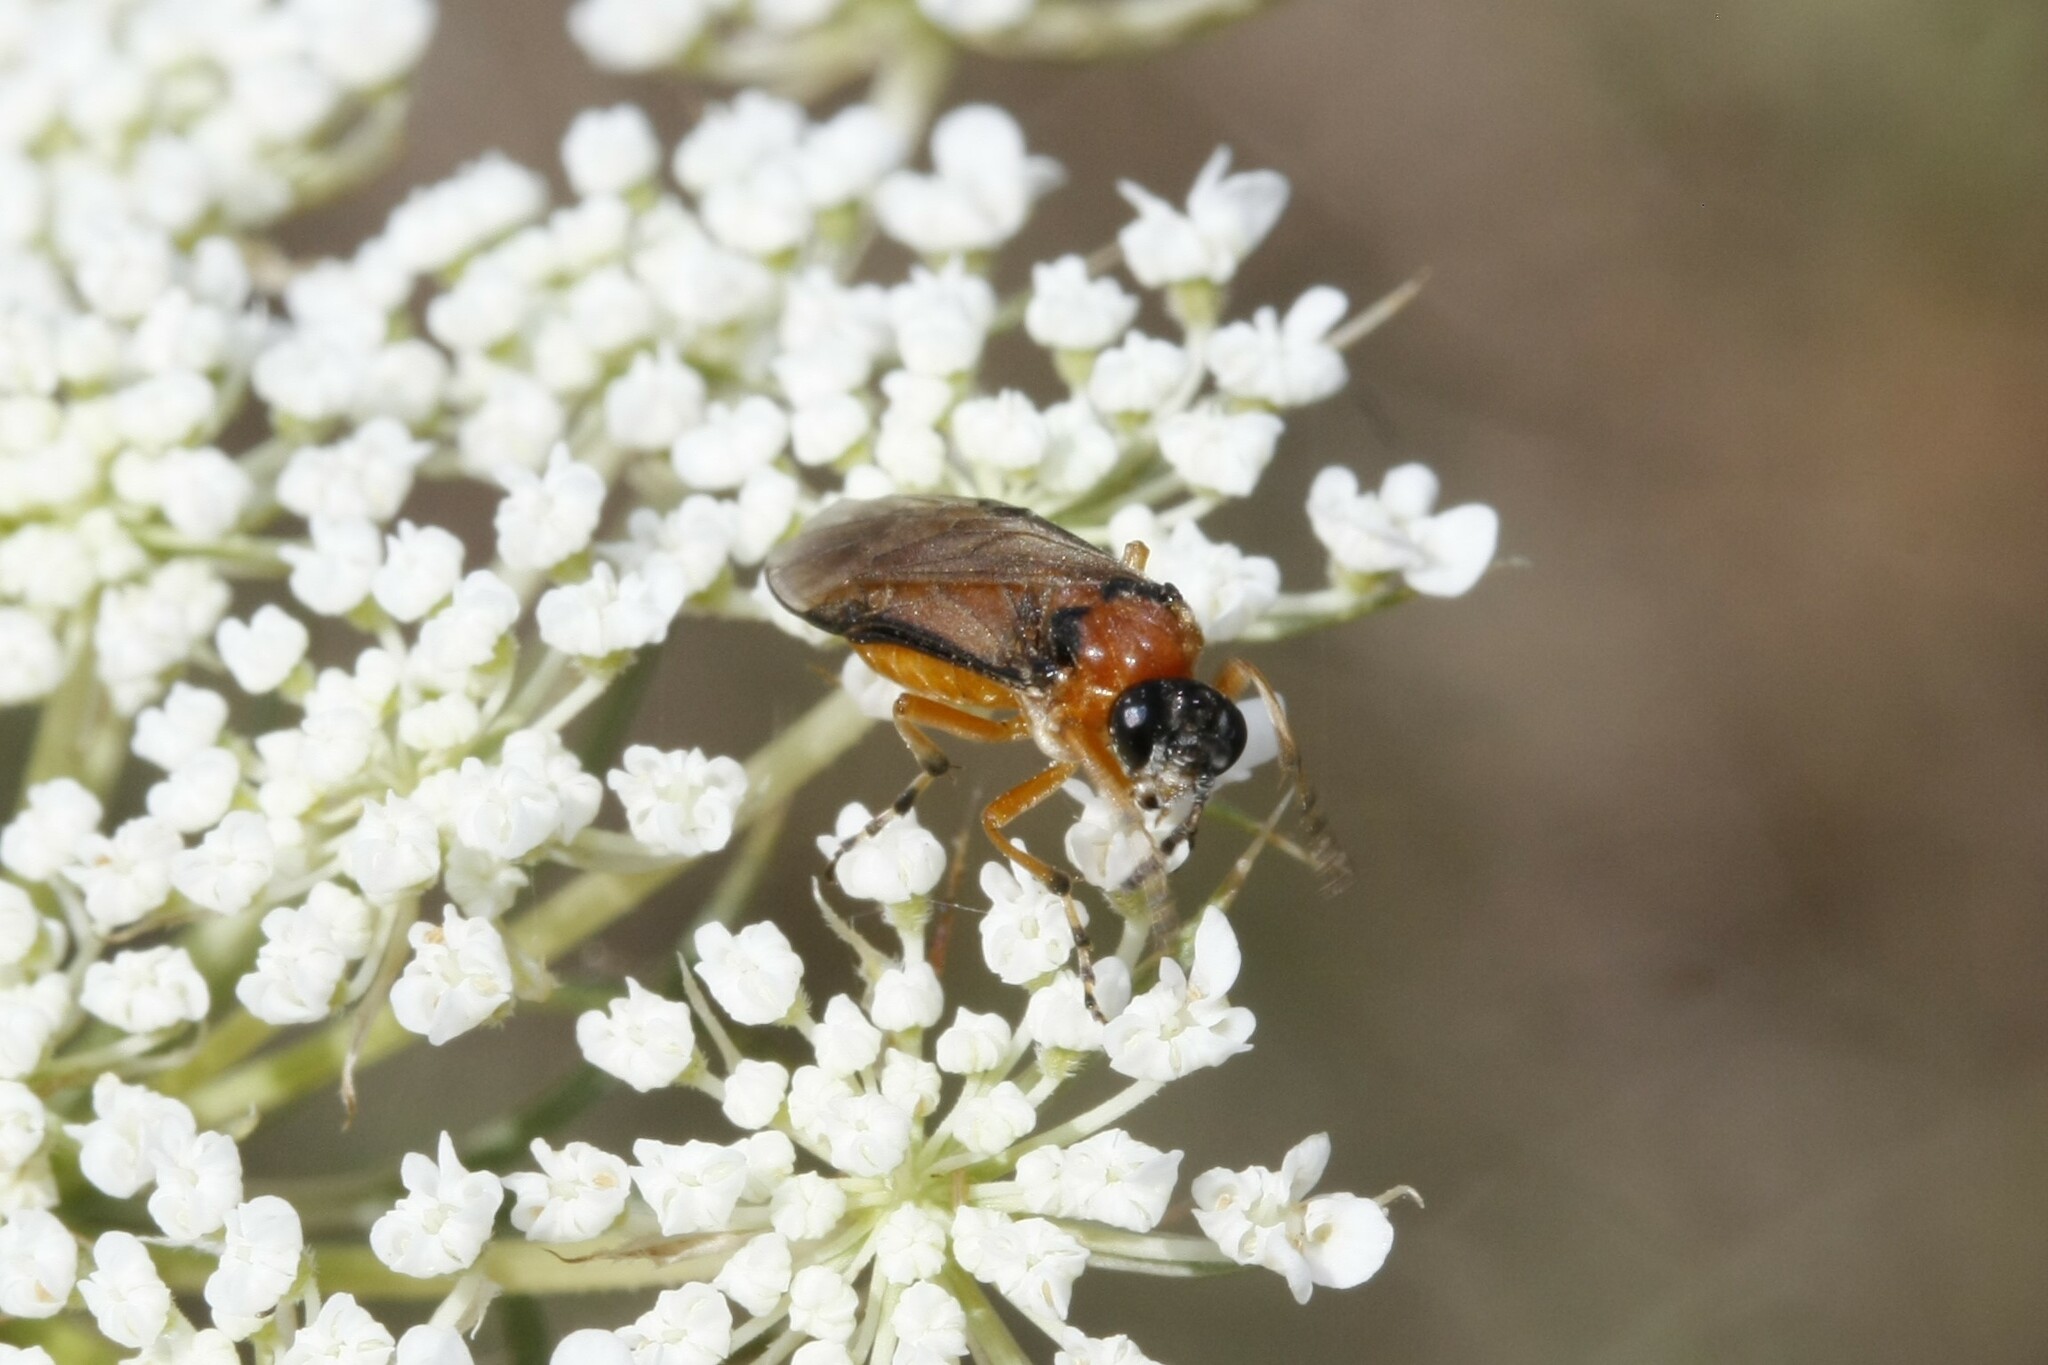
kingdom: Animalia
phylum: Arthropoda
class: Insecta
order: Hymenoptera
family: Tenthredinidae
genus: Athalia
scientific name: Athalia rosae
